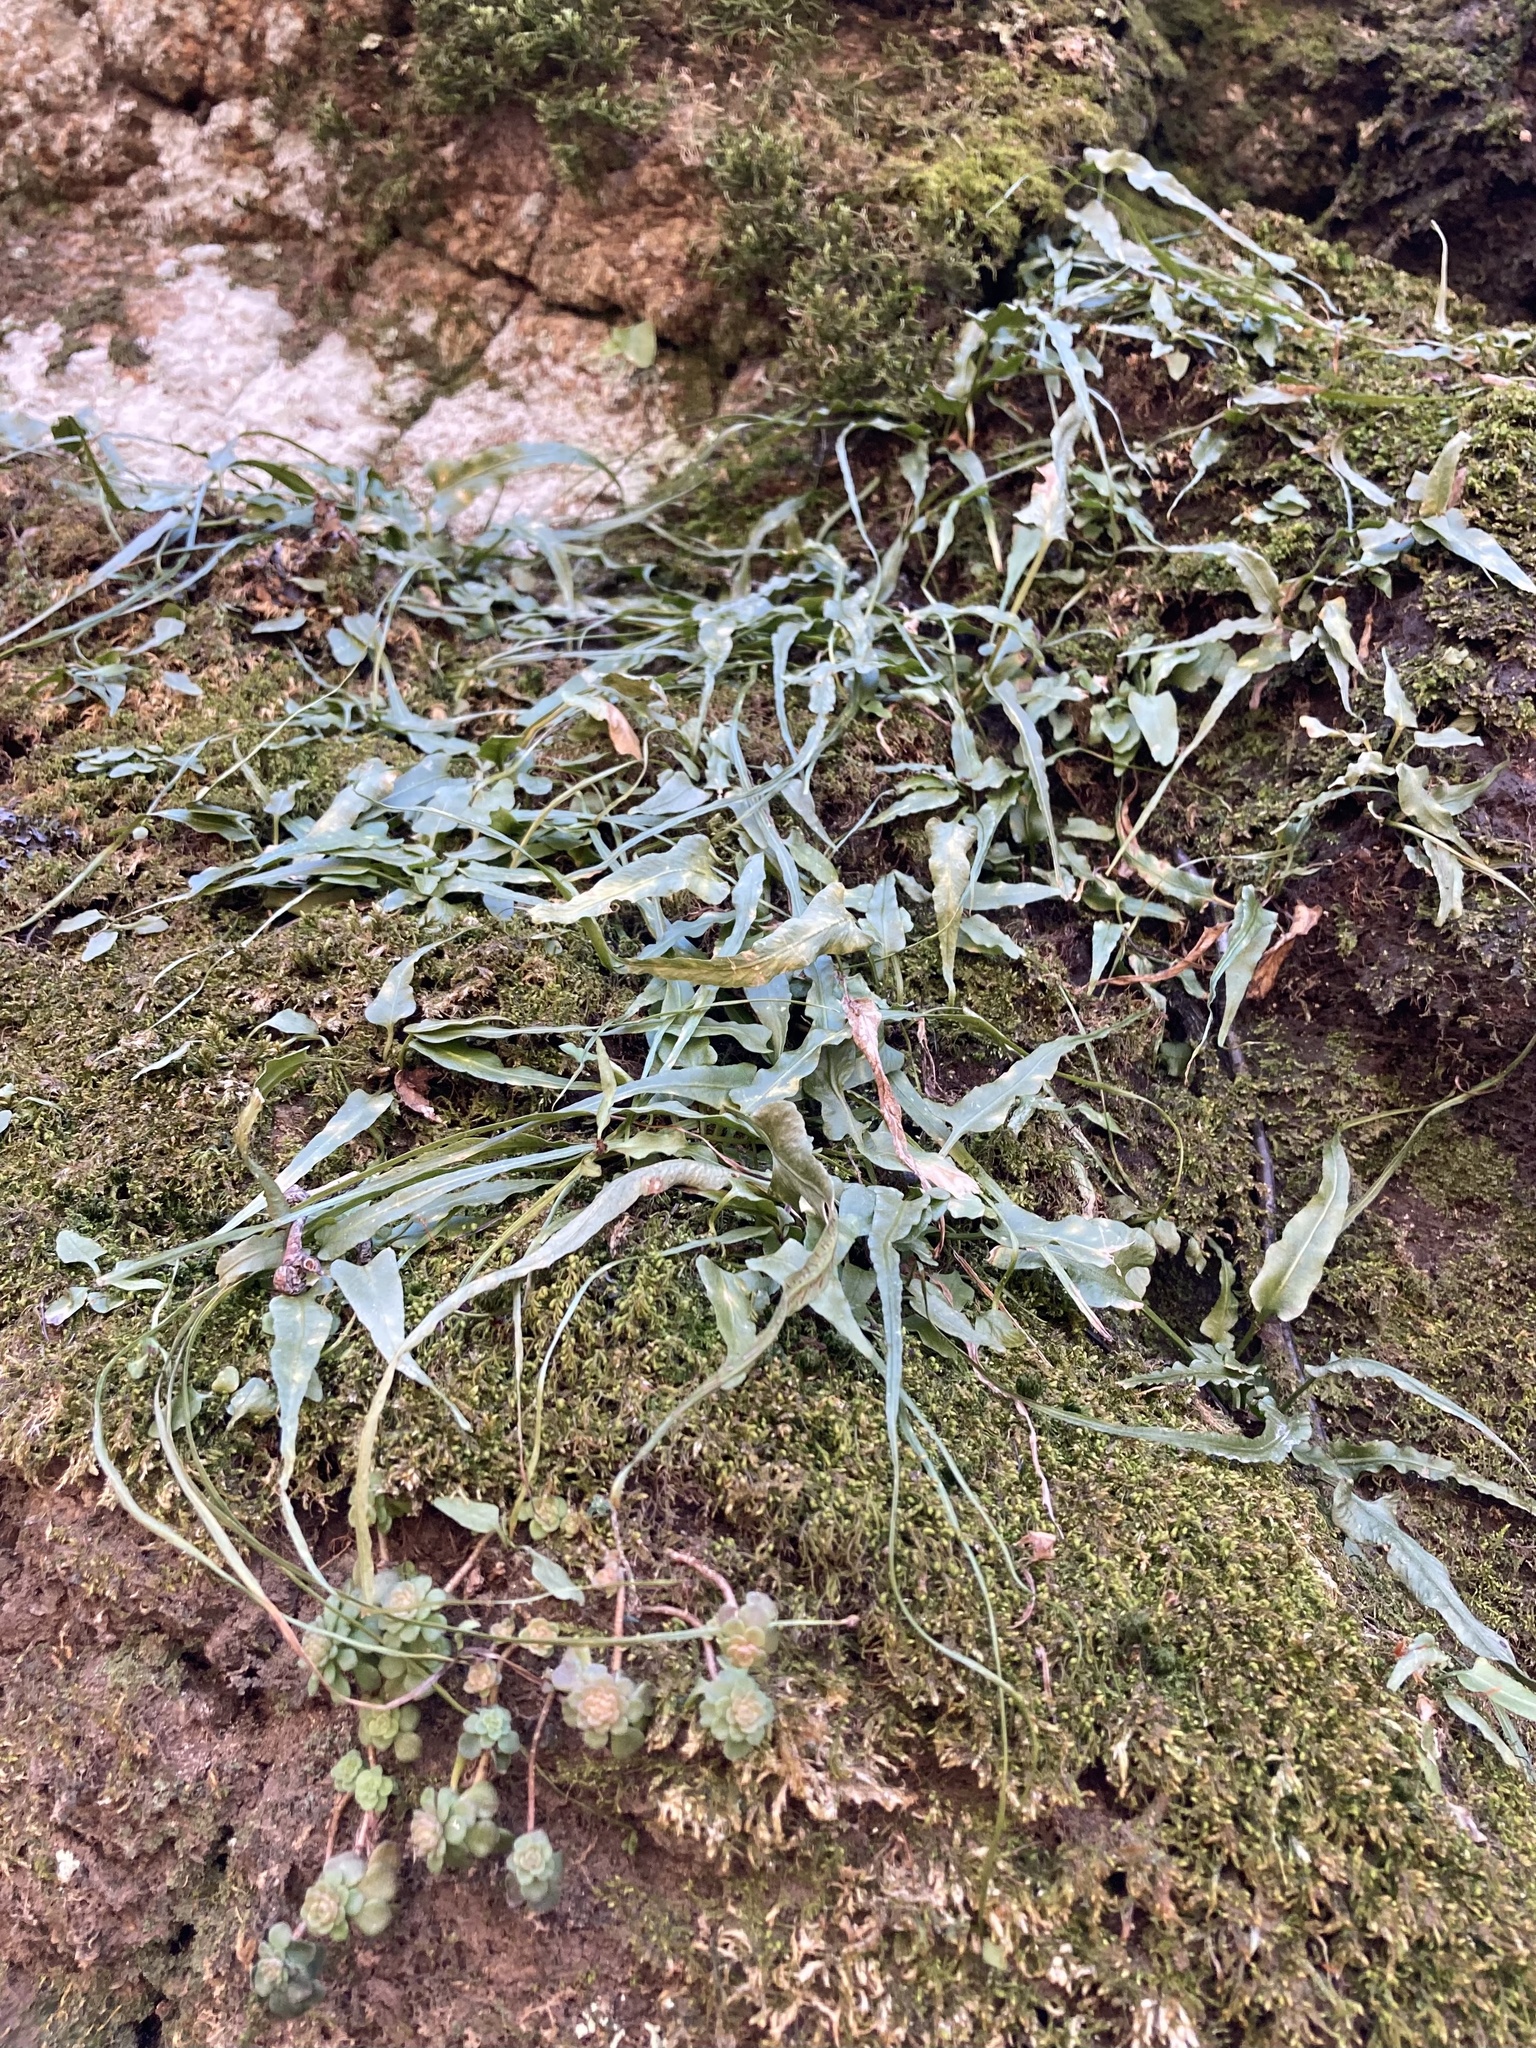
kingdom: Plantae
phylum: Tracheophyta
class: Polypodiopsida
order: Polypodiales
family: Aspleniaceae
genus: Asplenium
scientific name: Asplenium rhizophyllum
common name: Walking fern
